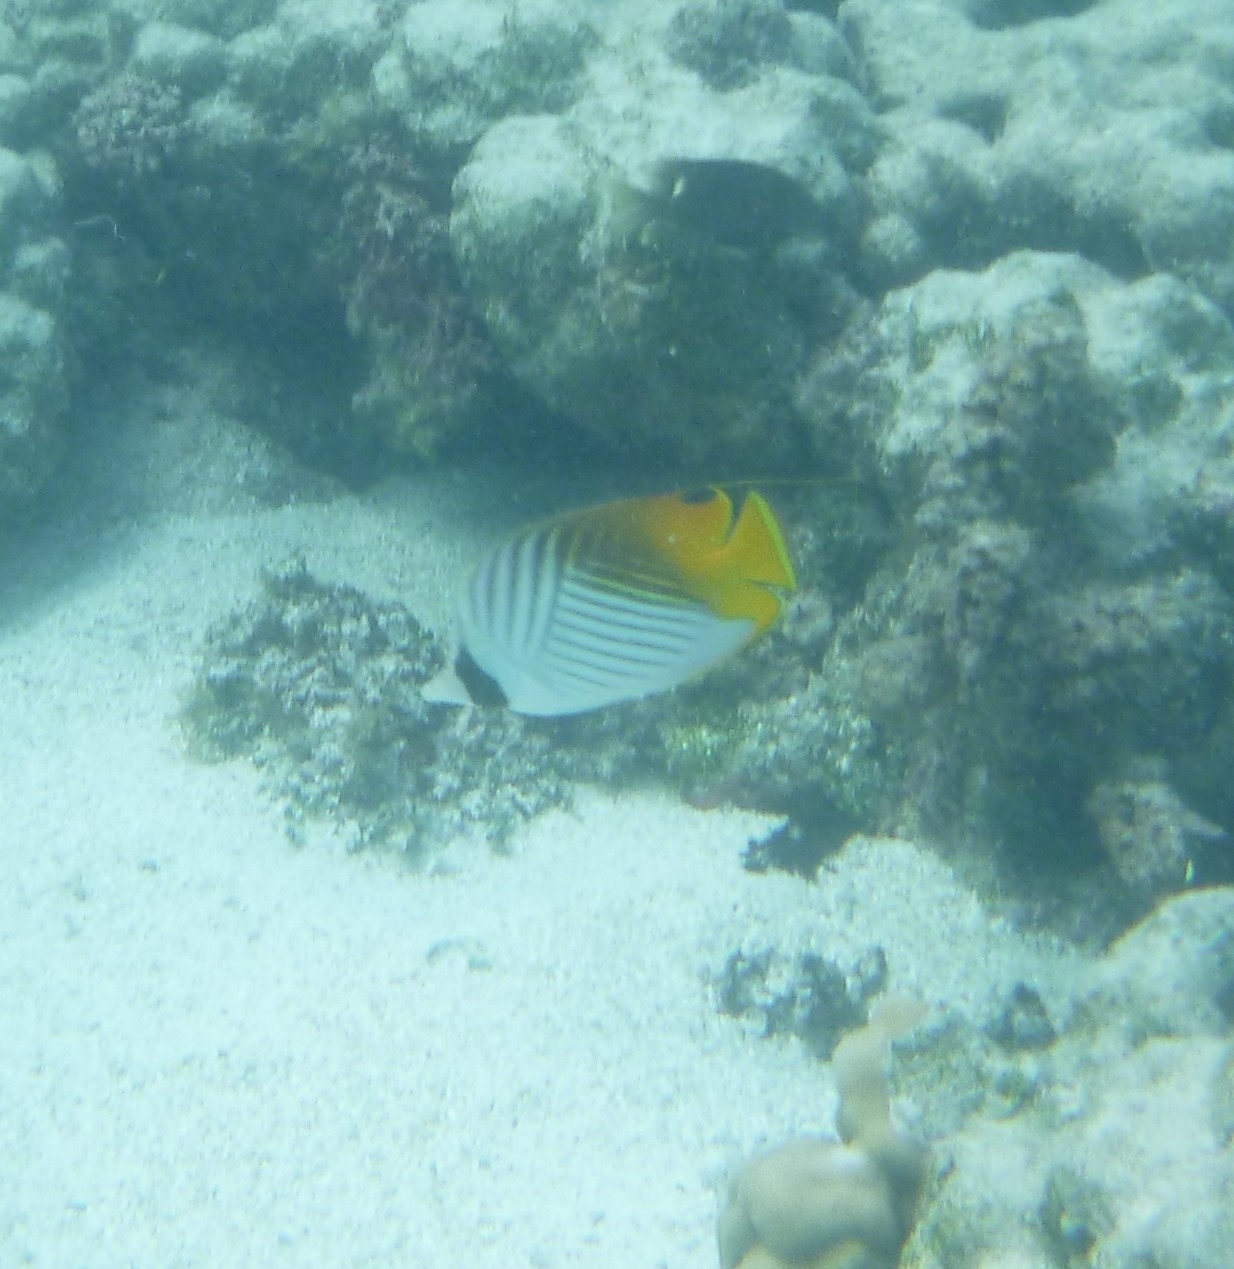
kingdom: Animalia
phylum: Chordata
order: Perciformes
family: Chaetodontidae
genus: Chaetodon
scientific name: Chaetodon auriga
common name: Threadfin butterflyfish
